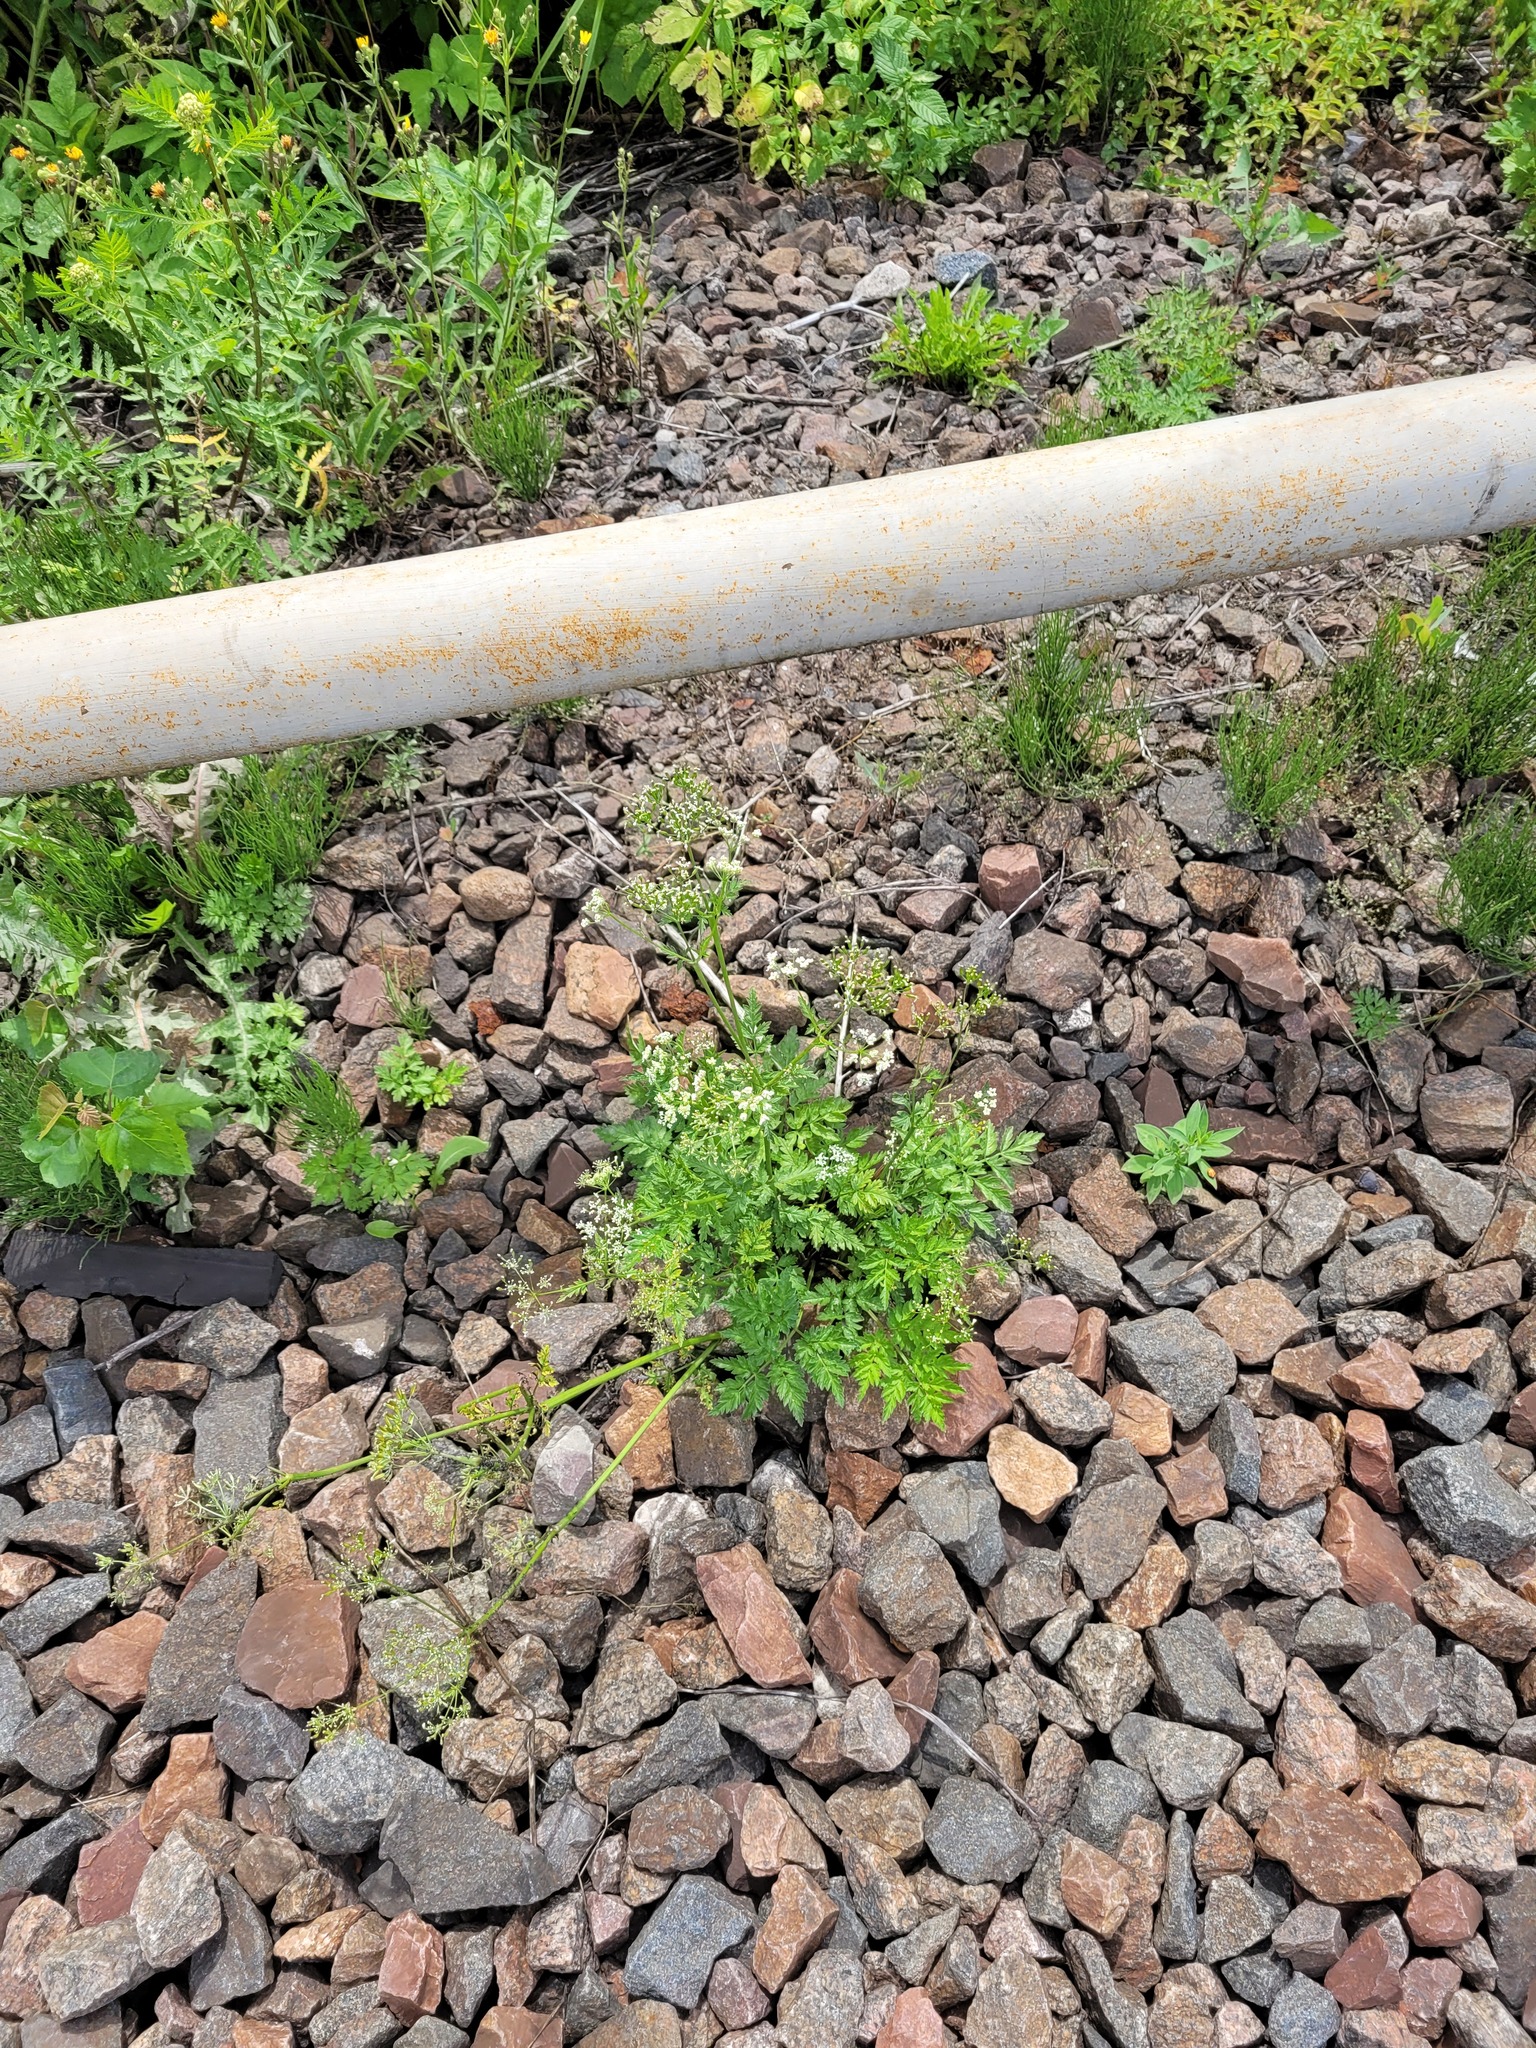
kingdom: Plantae
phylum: Tracheophyta
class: Magnoliopsida
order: Apiales
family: Apiaceae
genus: Anthriscus
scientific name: Anthriscus sylvestris
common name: Cow parsley
